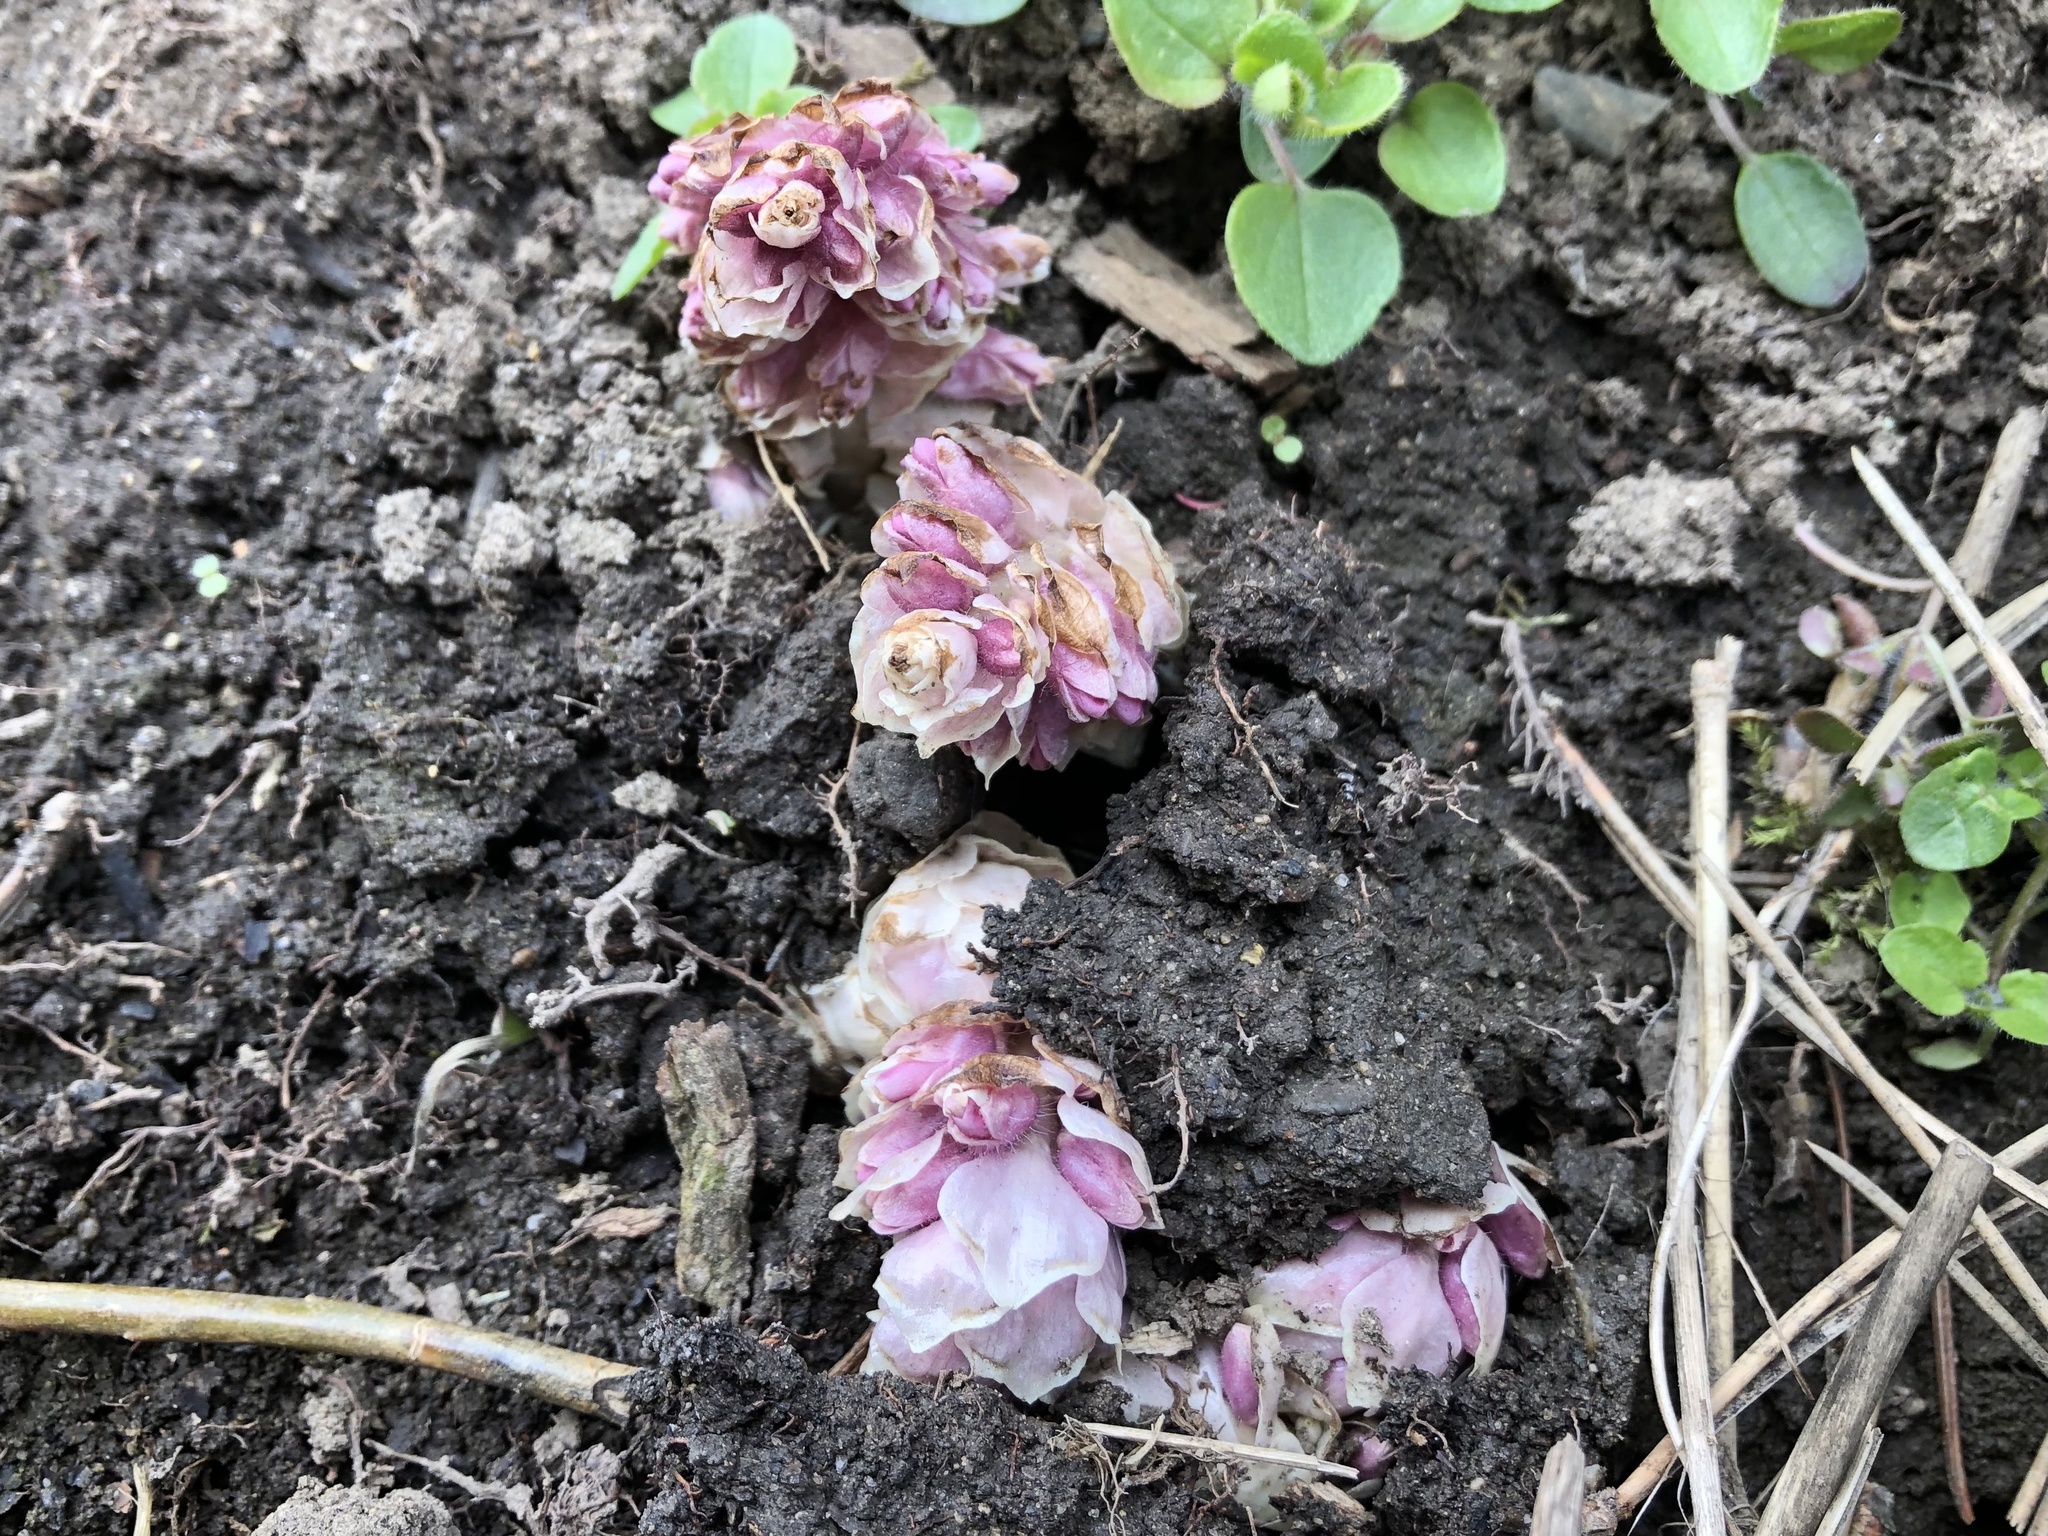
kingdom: Plantae
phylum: Tracheophyta
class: Magnoliopsida
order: Lamiales
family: Orobanchaceae
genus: Lathraea
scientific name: Lathraea squamaria
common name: Toothwort
